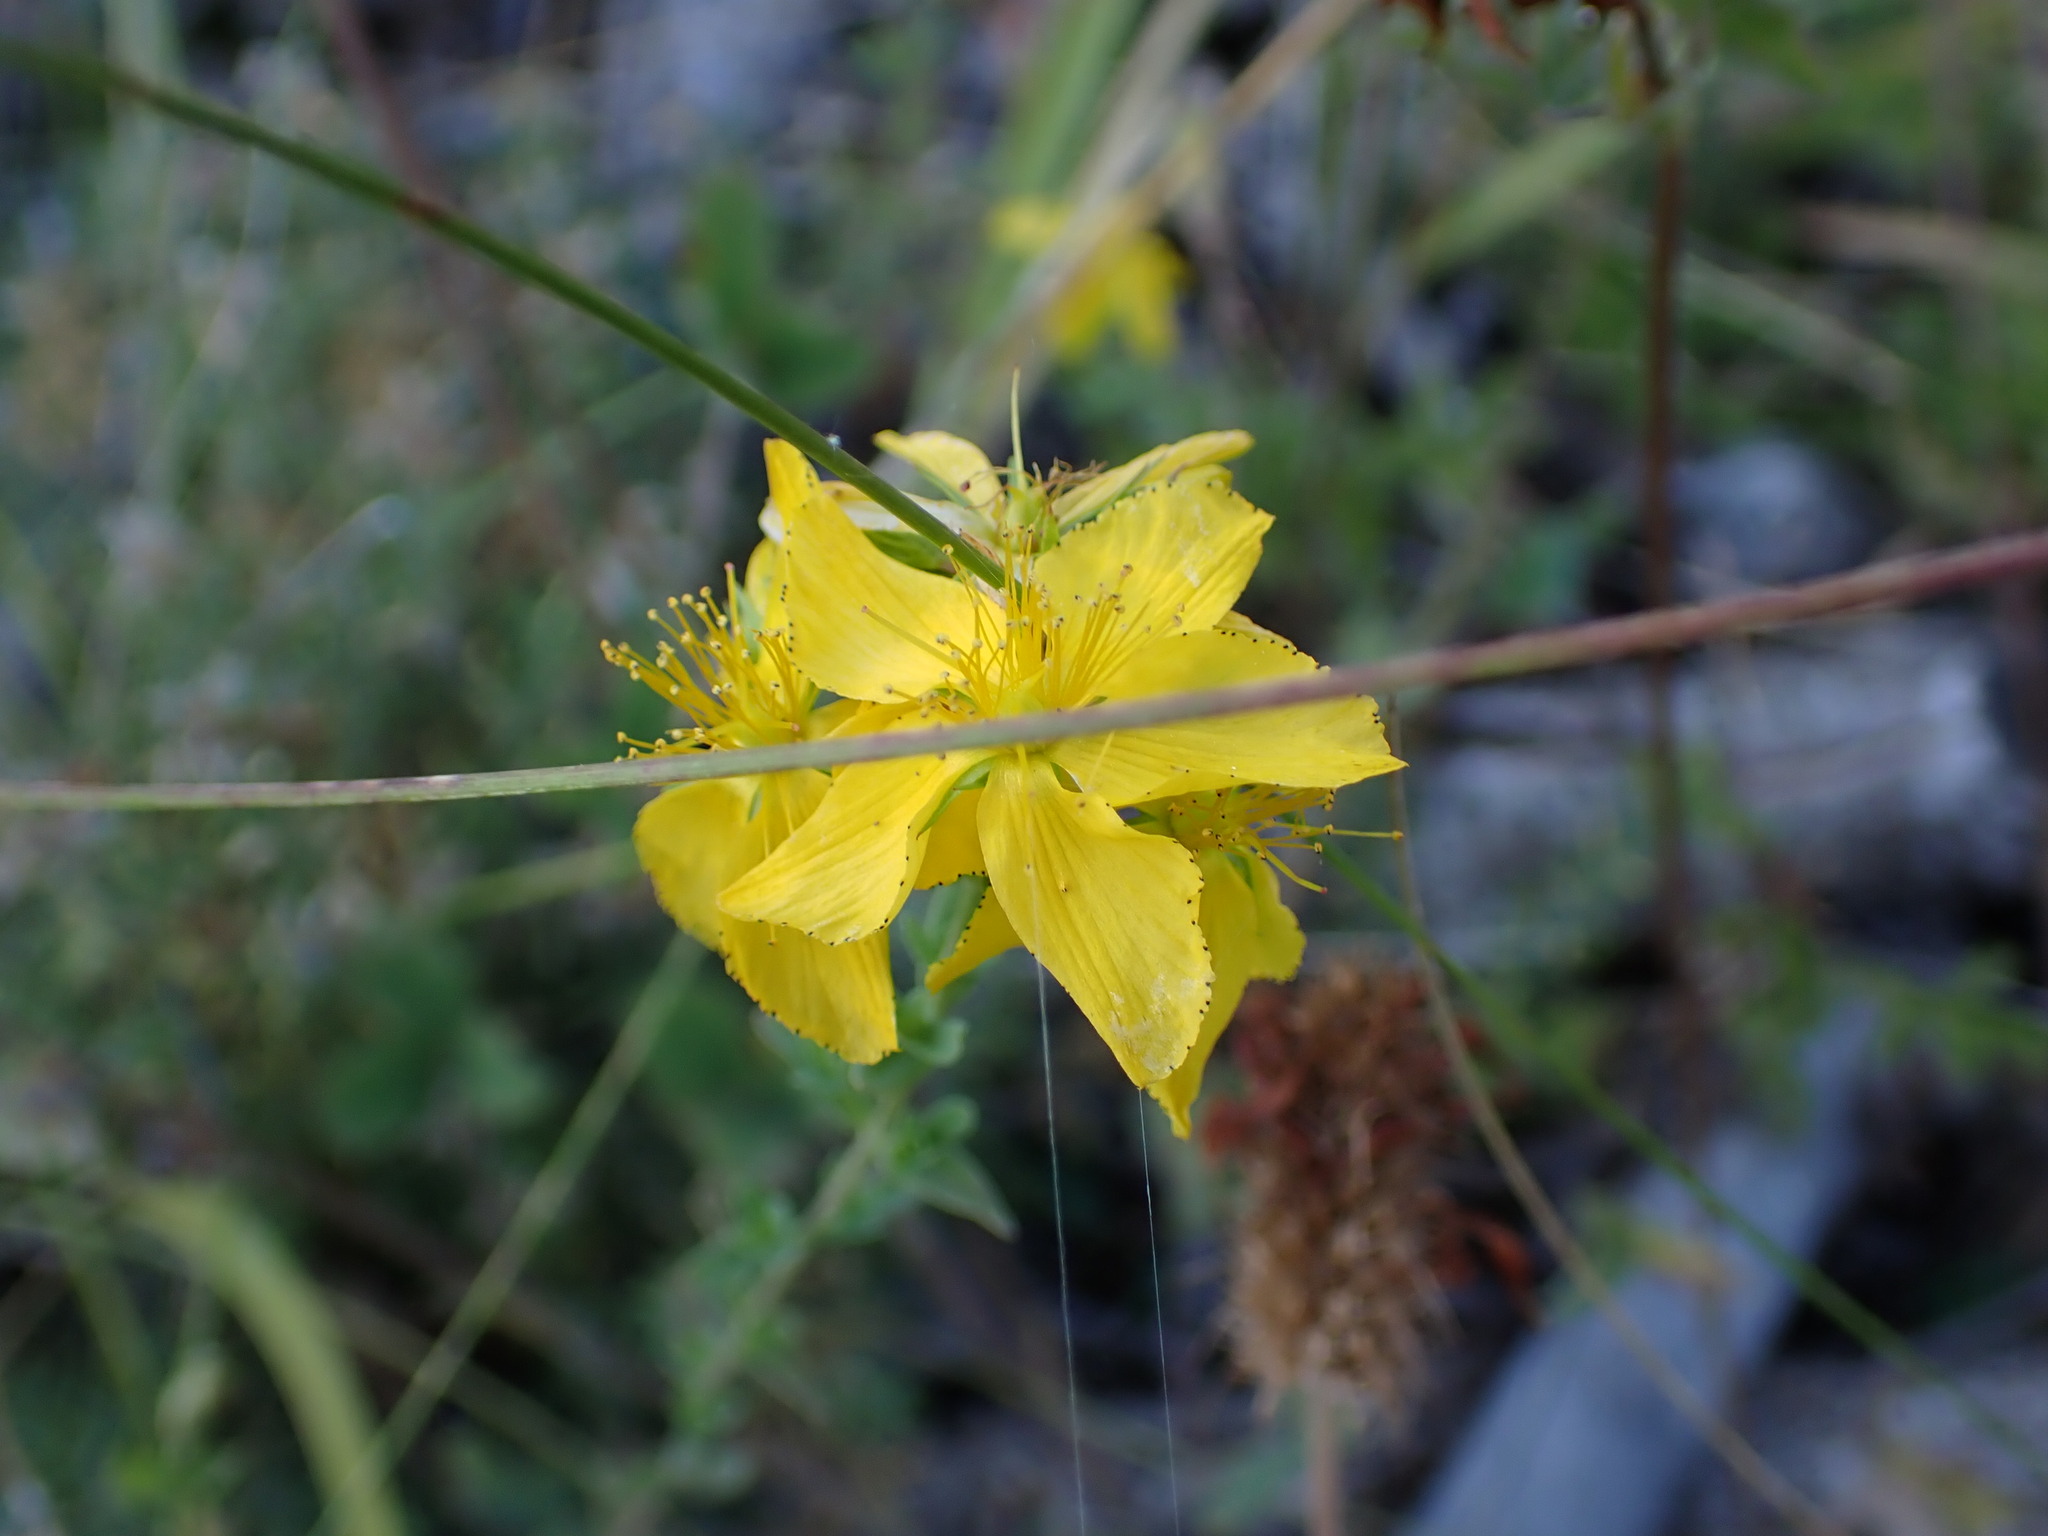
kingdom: Plantae
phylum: Tracheophyta
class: Magnoliopsida
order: Malpighiales
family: Hypericaceae
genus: Hypericum
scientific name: Hypericum perforatum
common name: Common st. johnswort
